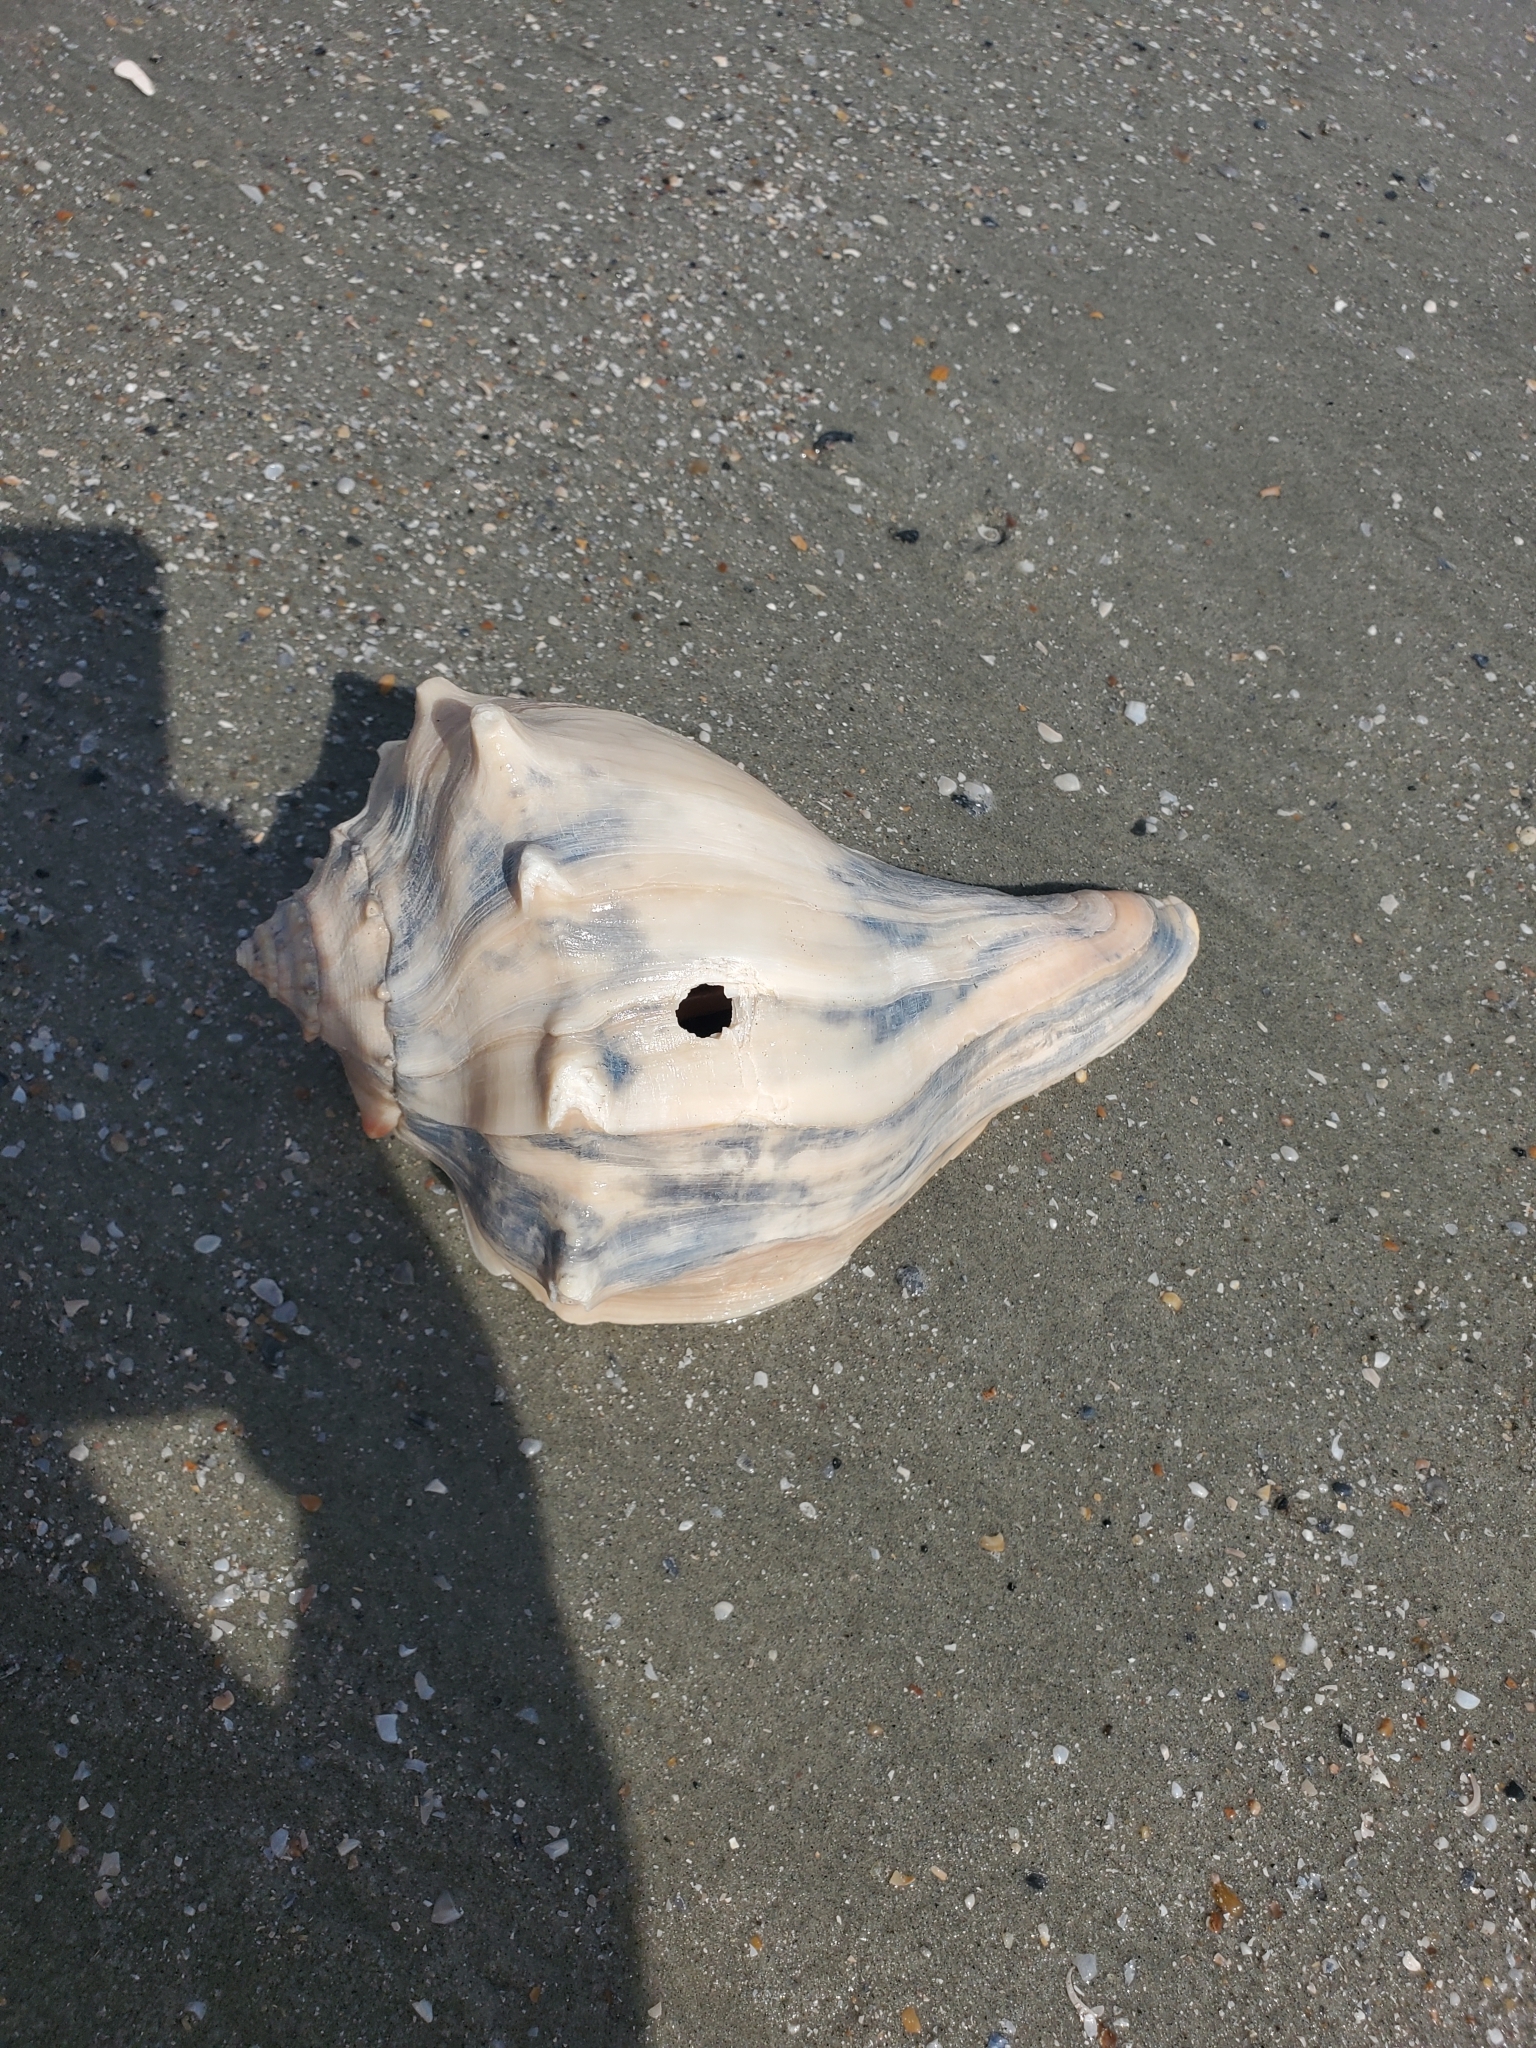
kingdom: Animalia
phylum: Mollusca
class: Gastropoda
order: Neogastropoda
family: Busyconidae
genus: Busycon
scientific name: Busycon carica
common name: Knobbed whelk
